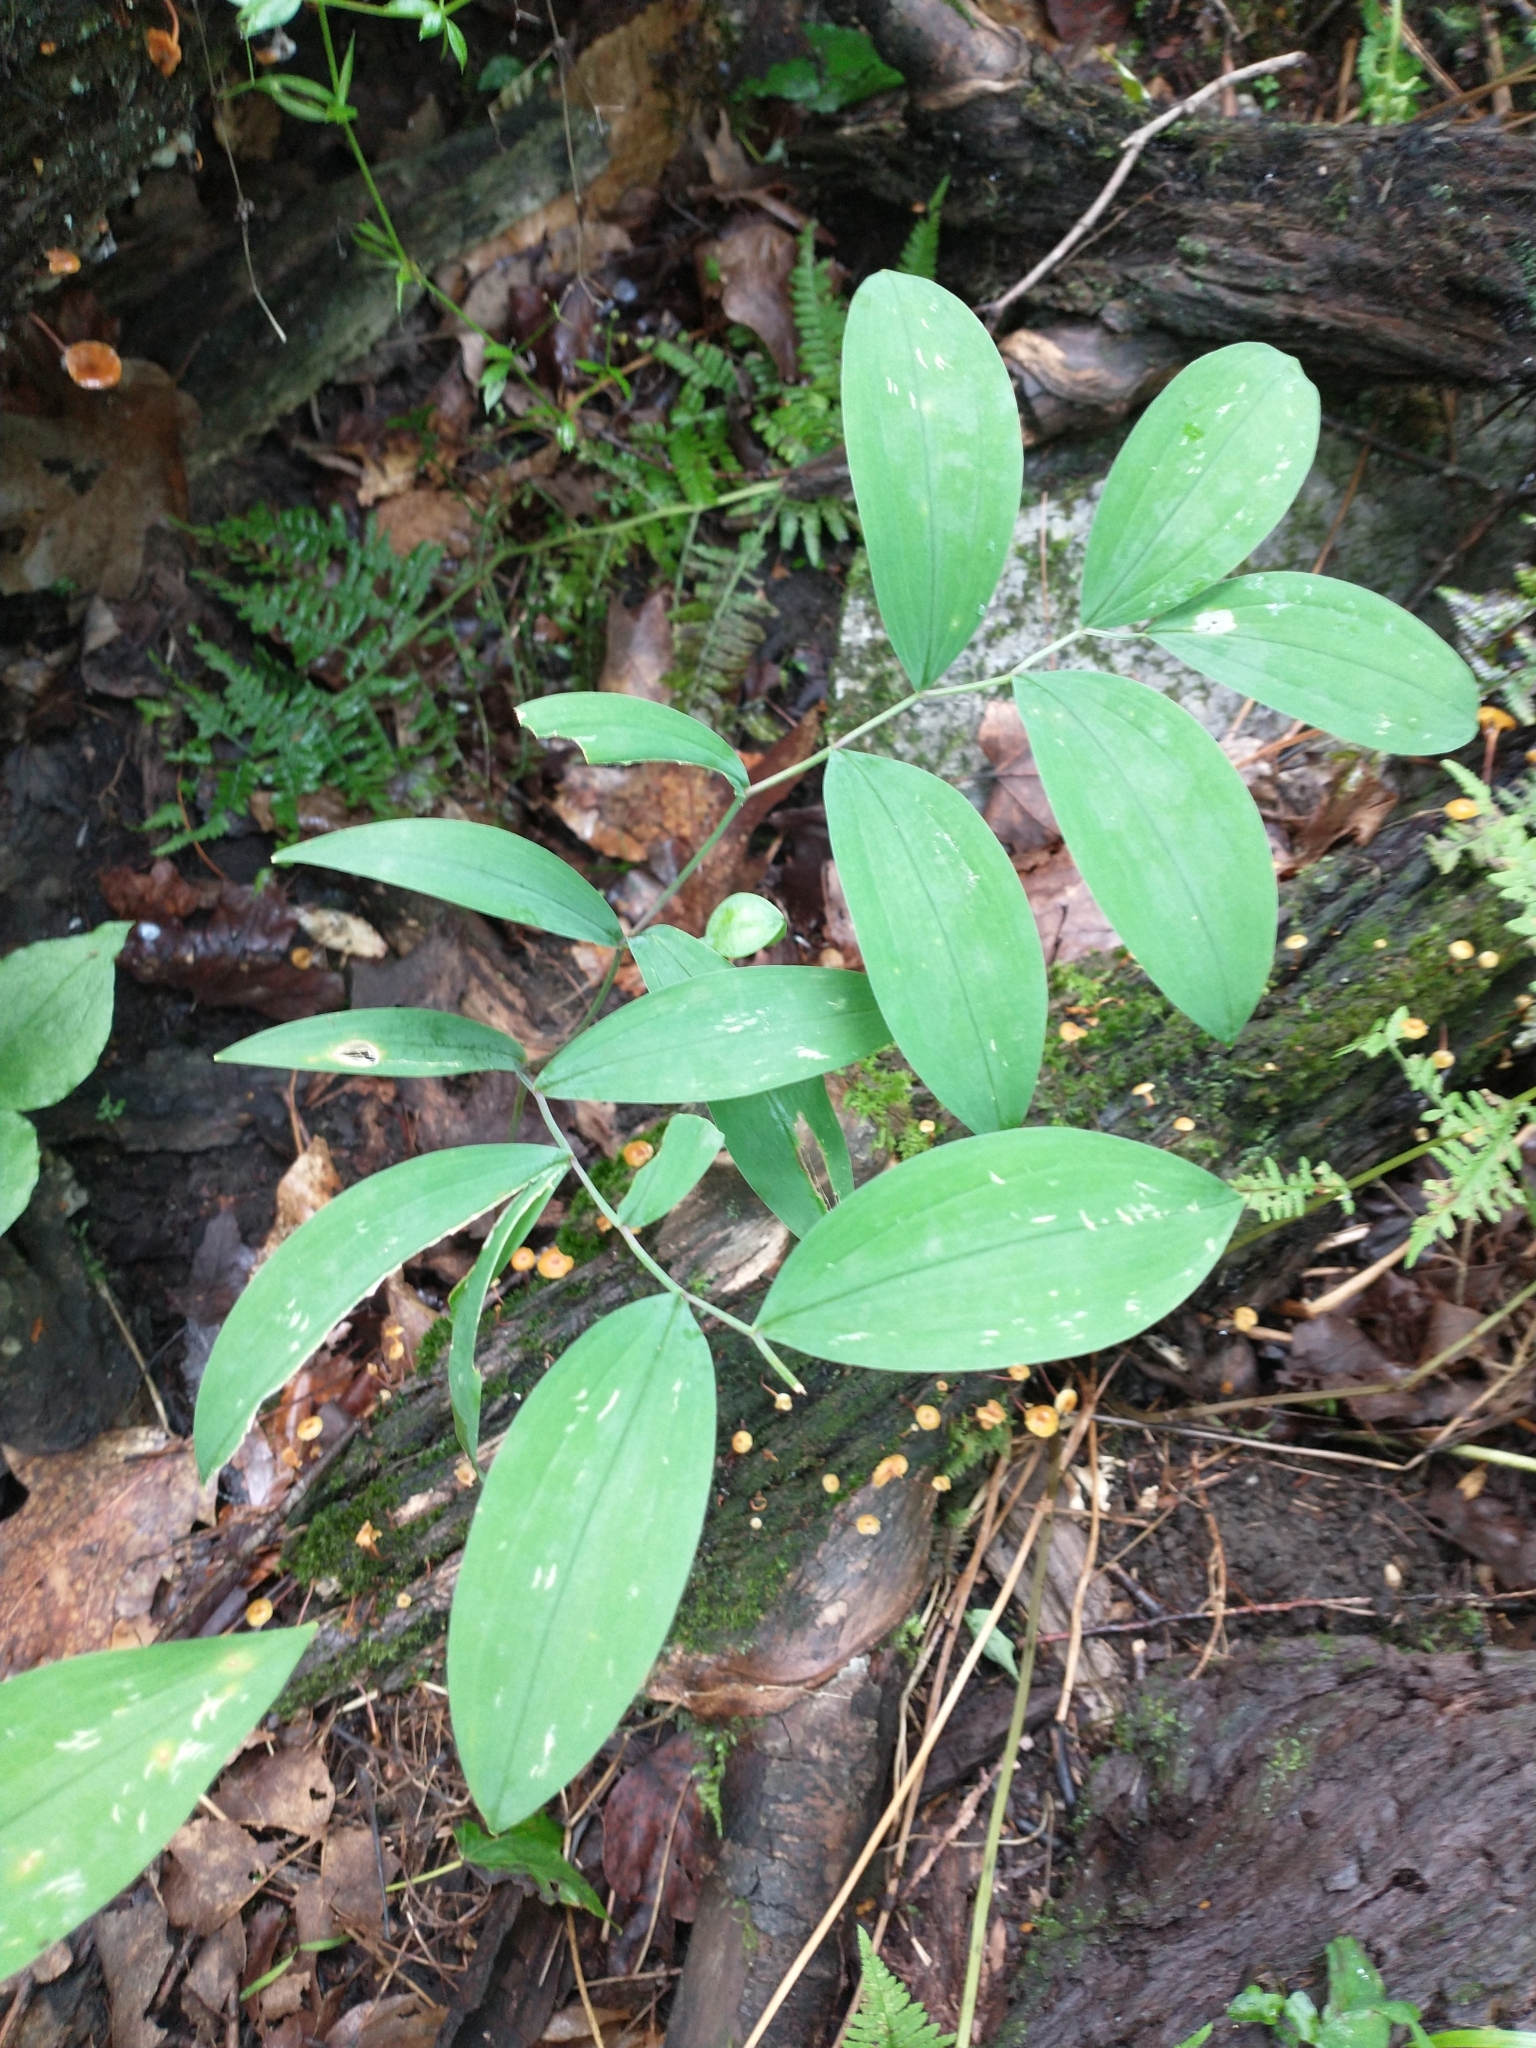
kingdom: Plantae
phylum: Tracheophyta
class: Liliopsida
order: Liliales
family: Colchicaceae
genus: Uvularia
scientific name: Uvularia sessilifolia
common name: Straw-lily
